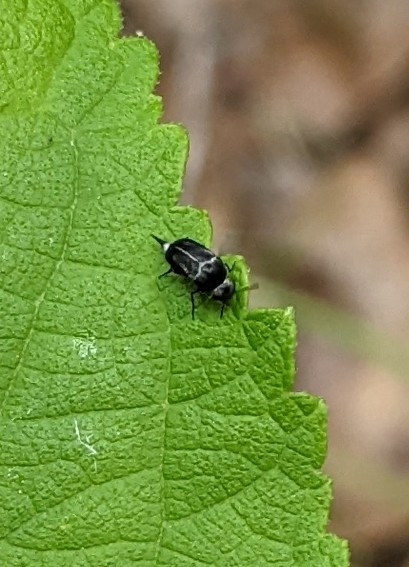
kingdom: Animalia
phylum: Arthropoda
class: Insecta
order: Coleoptera
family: Mordellidae
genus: Mordella
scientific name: Mordella lunulata
